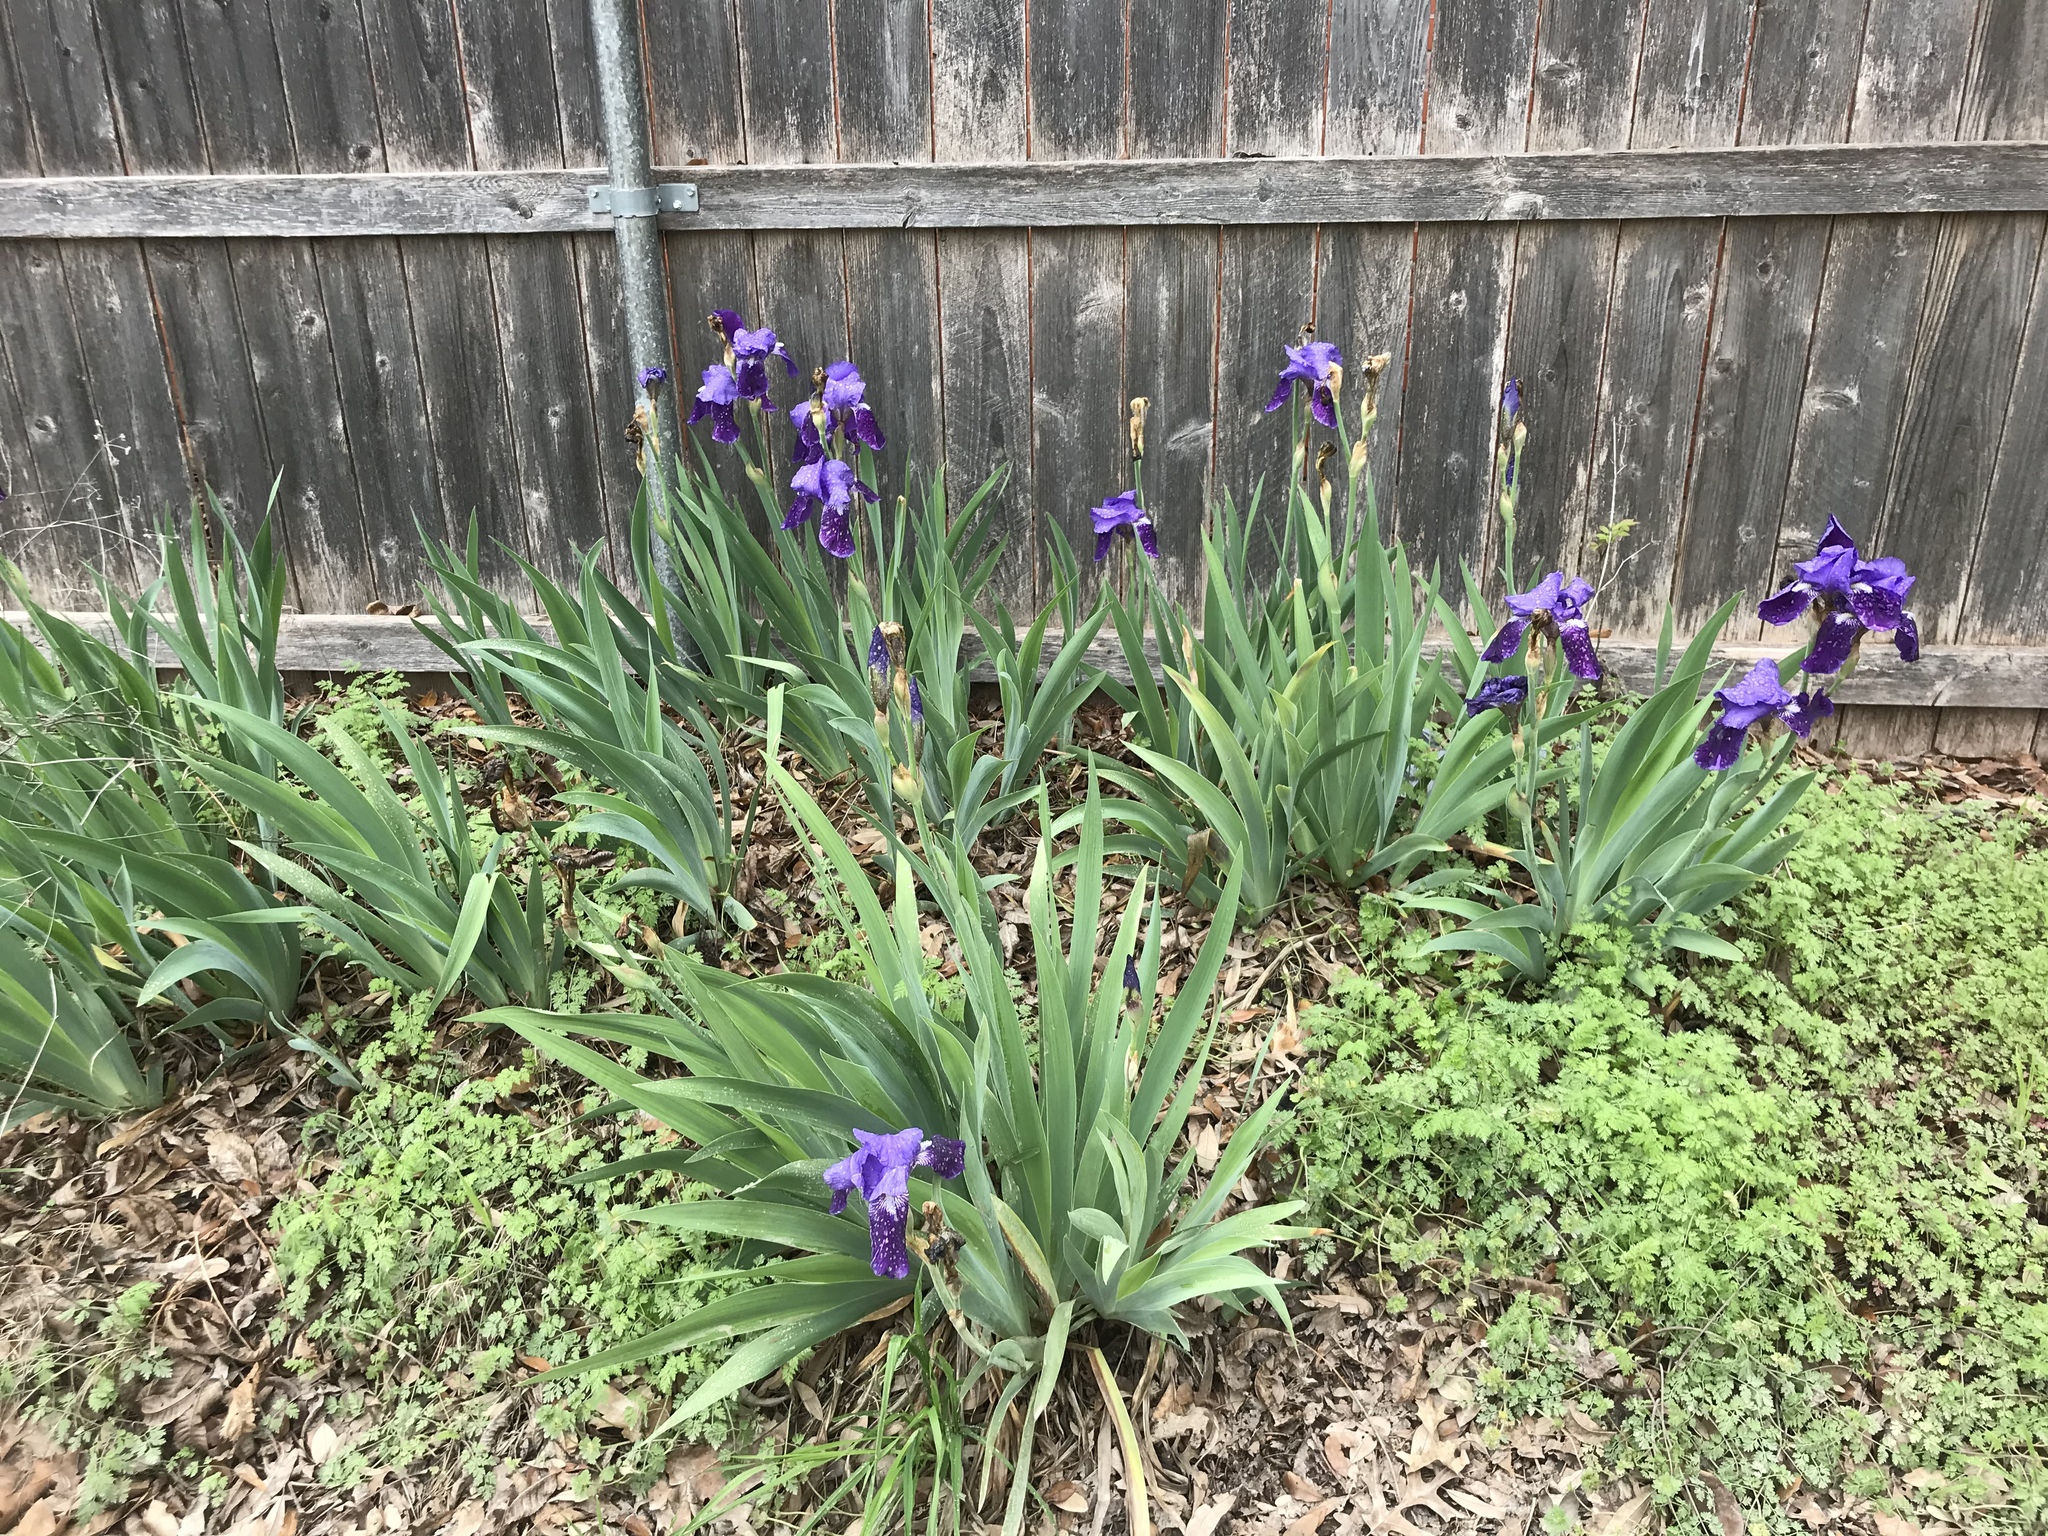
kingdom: Plantae
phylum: Tracheophyta
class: Liliopsida
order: Asparagales
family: Iridaceae
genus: Iris
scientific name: Iris germanica
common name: German iris
